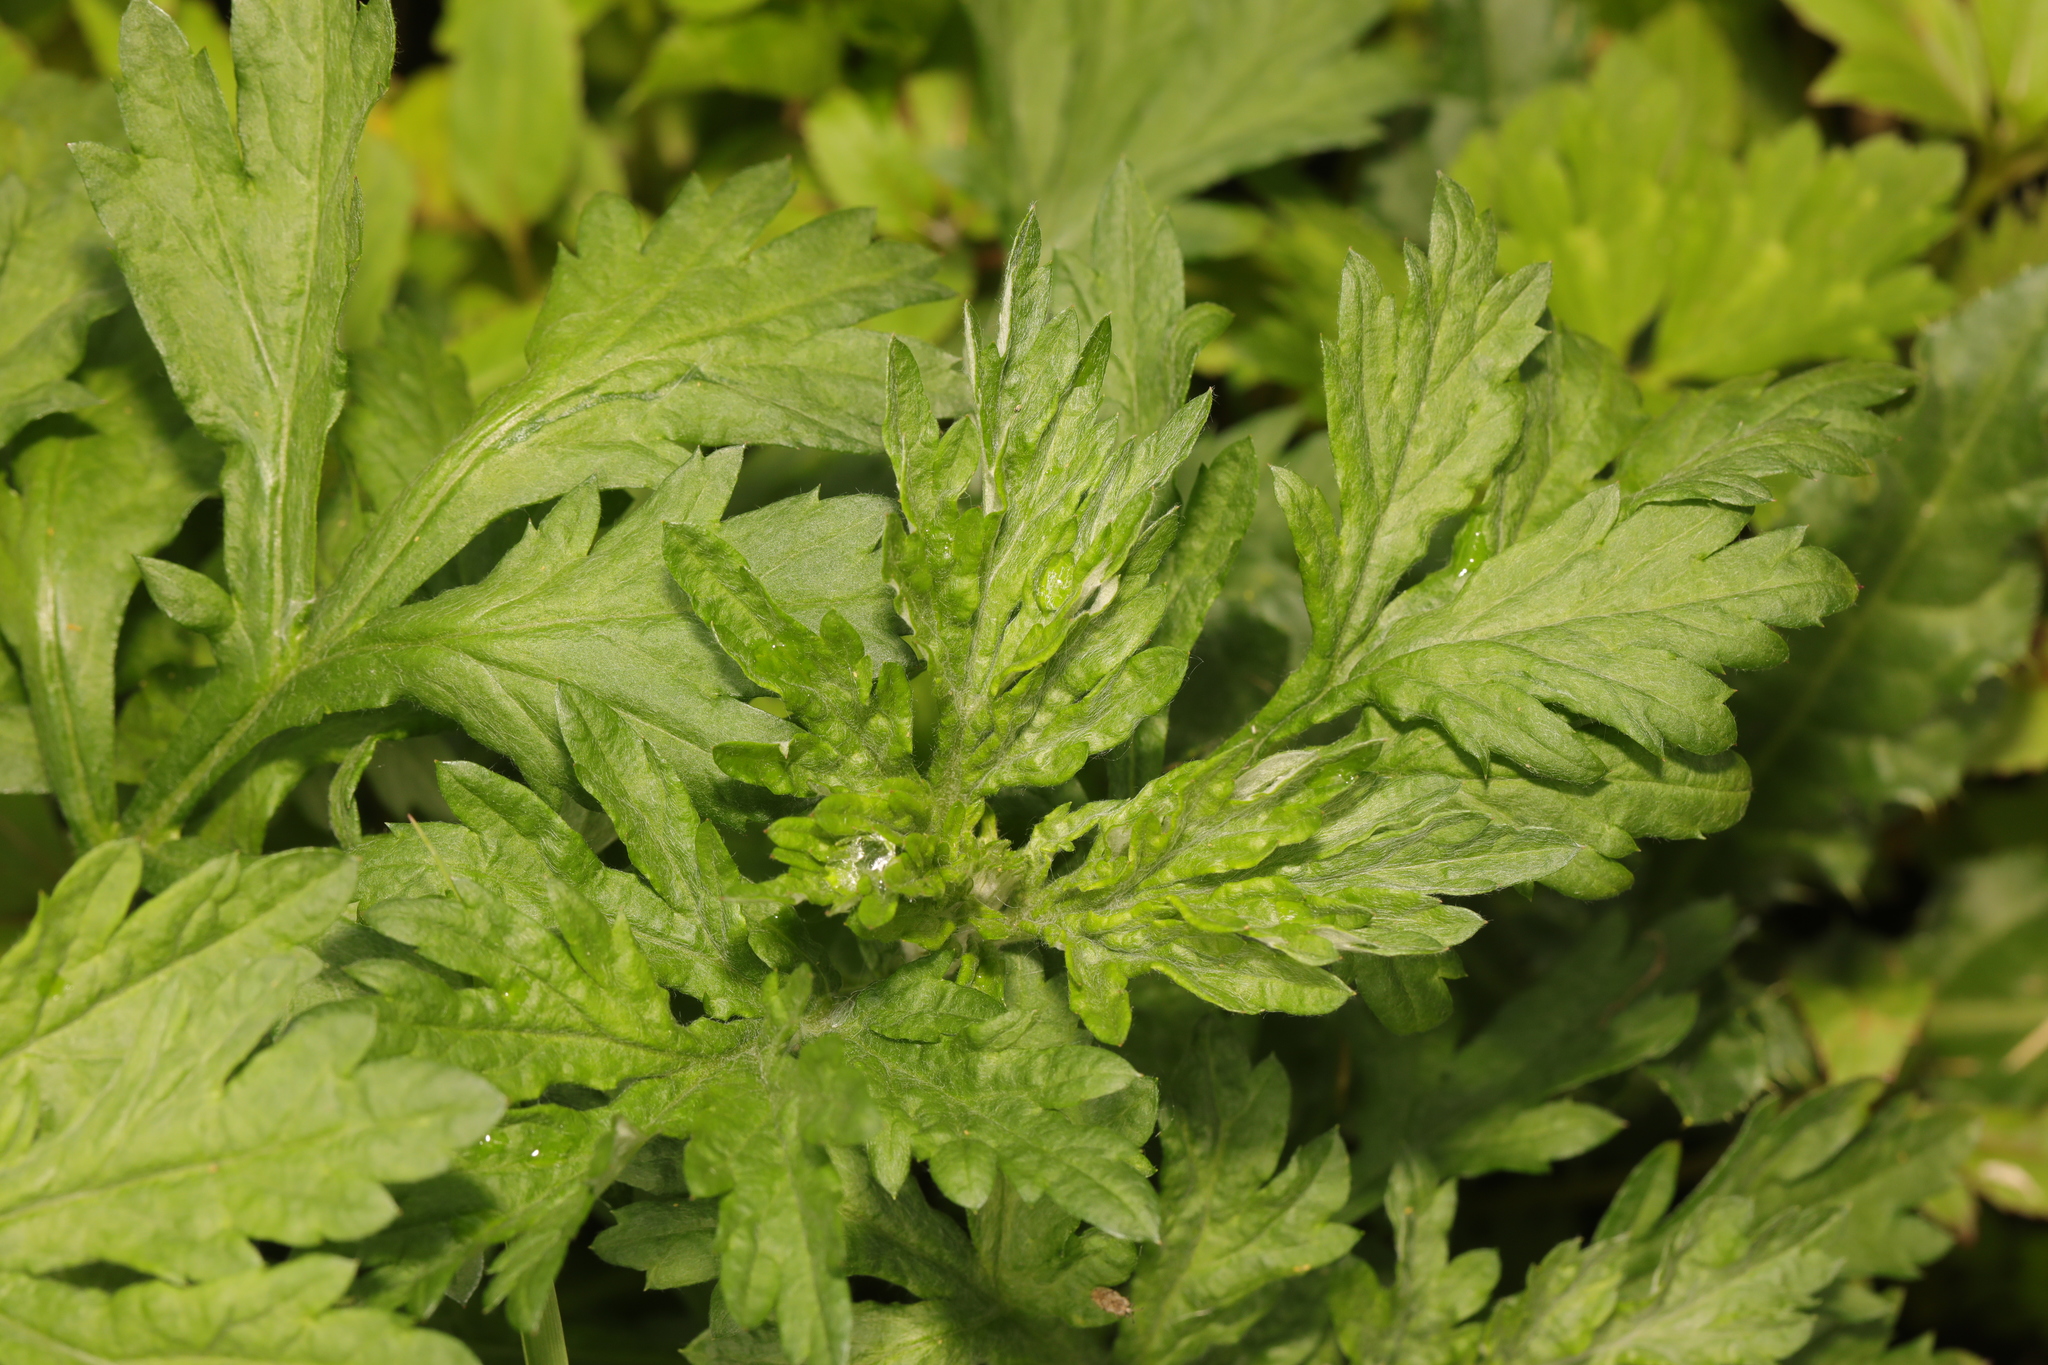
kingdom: Plantae
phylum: Tracheophyta
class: Magnoliopsida
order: Asterales
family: Asteraceae
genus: Artemisia
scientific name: Artemisia vulgaris
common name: Mugwort
